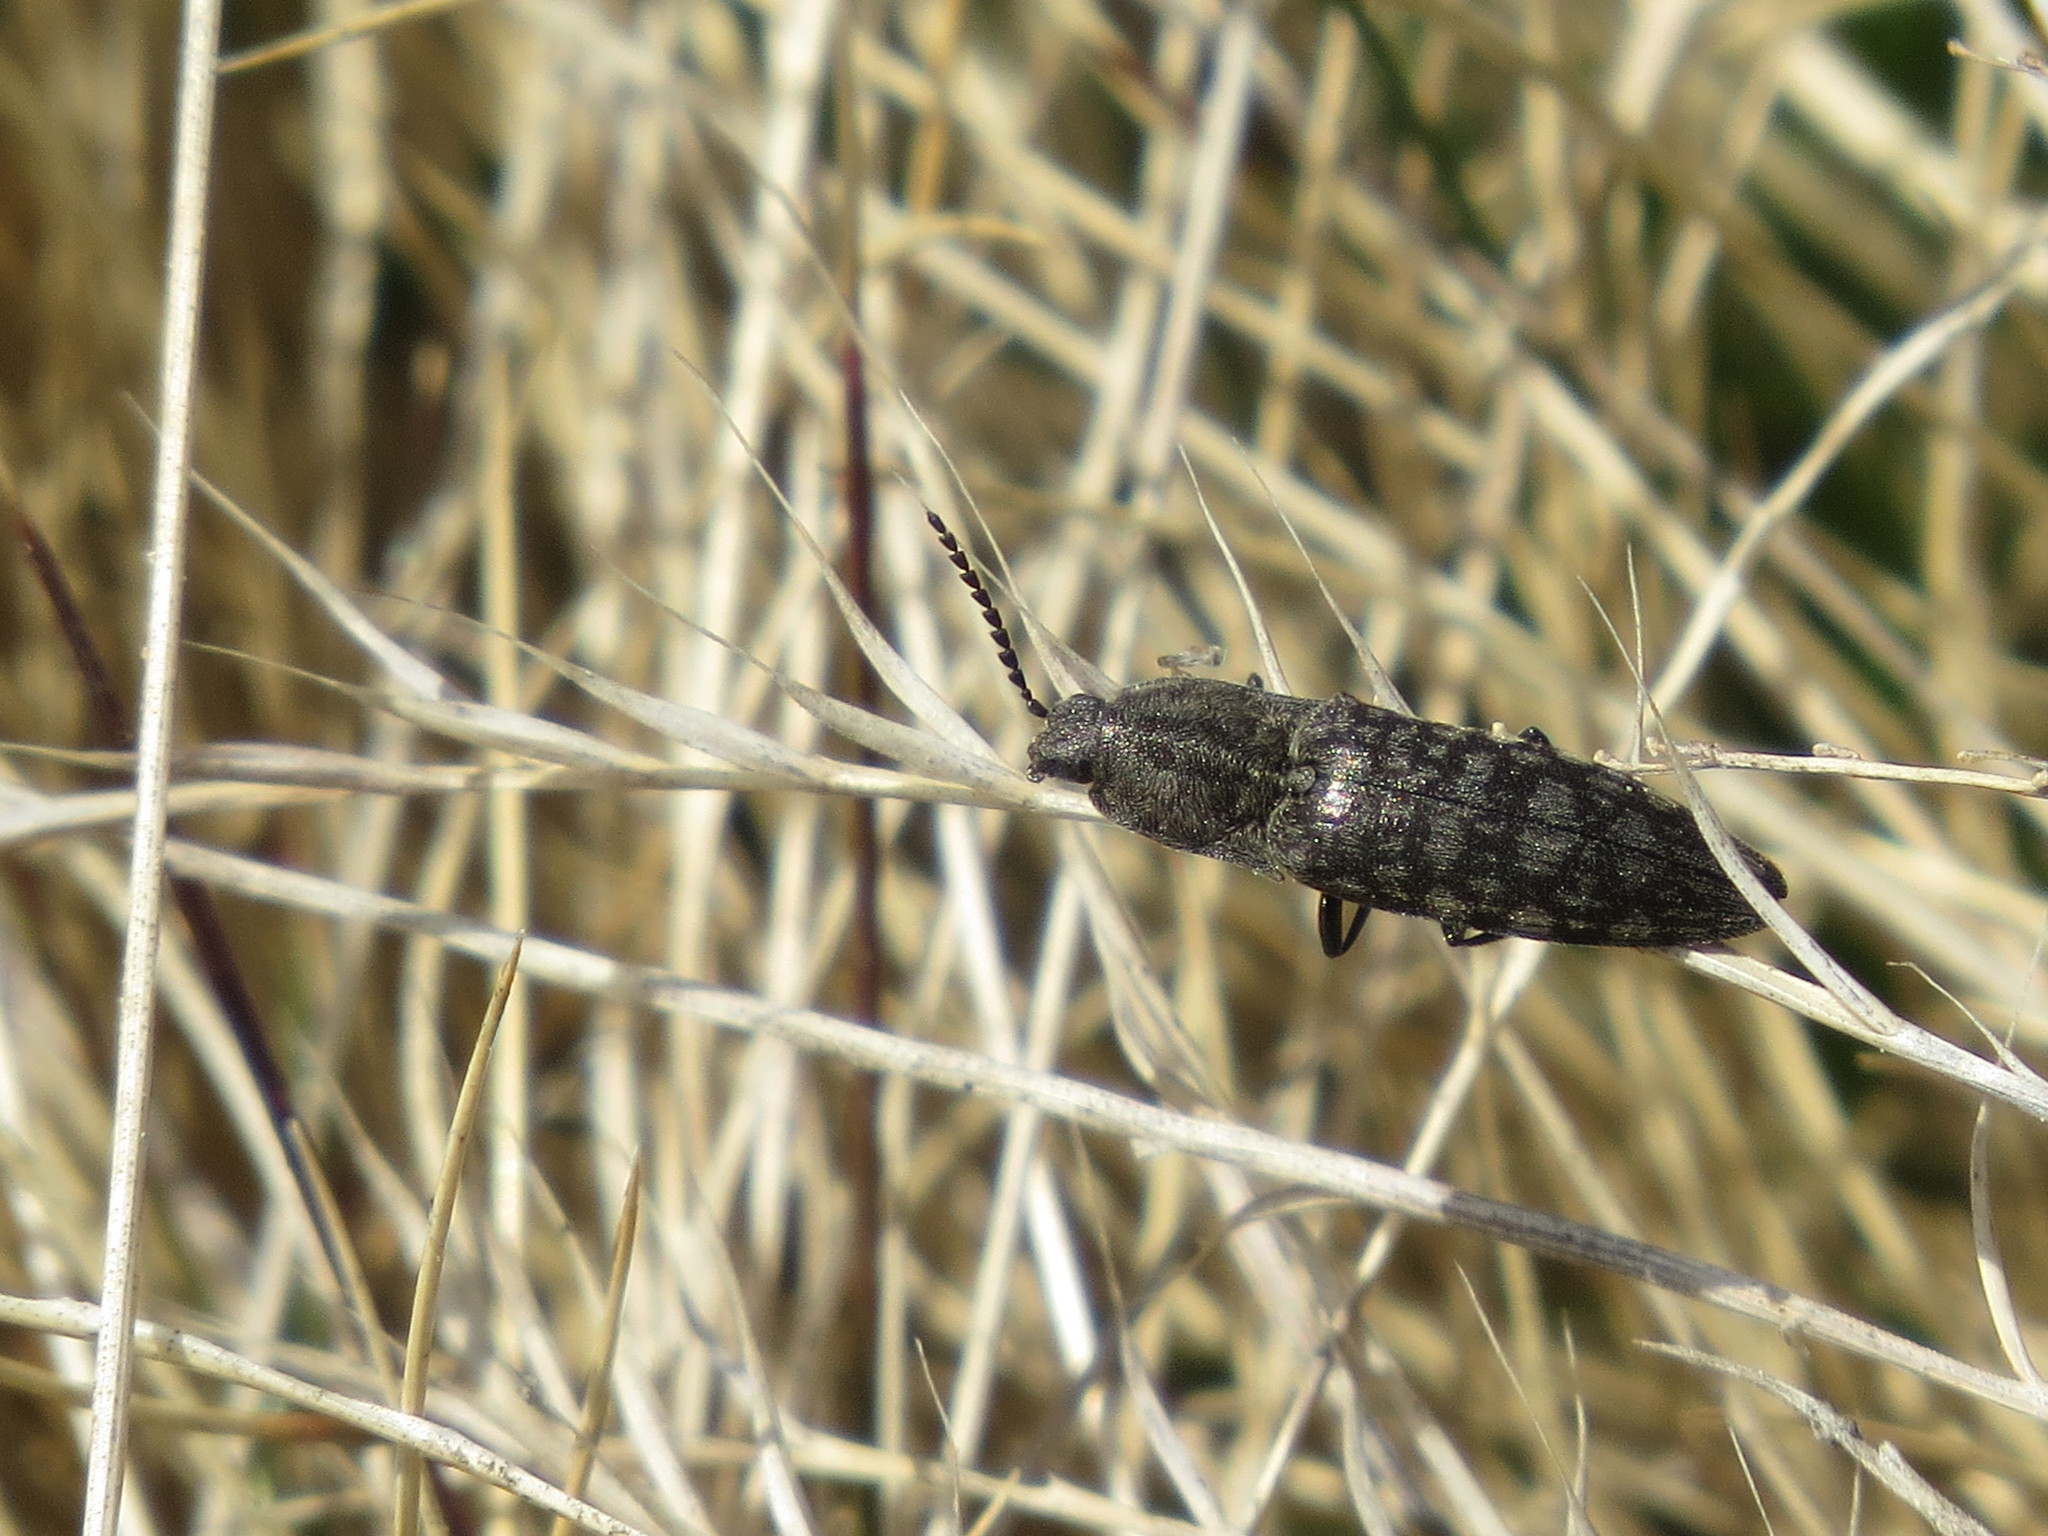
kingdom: Animalia
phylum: Arthropoda
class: Insecta
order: Coleoptera
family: Elateridae
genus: Actenicerus
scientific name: Actenicerus sjaelandicus
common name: Marsh click beetle
